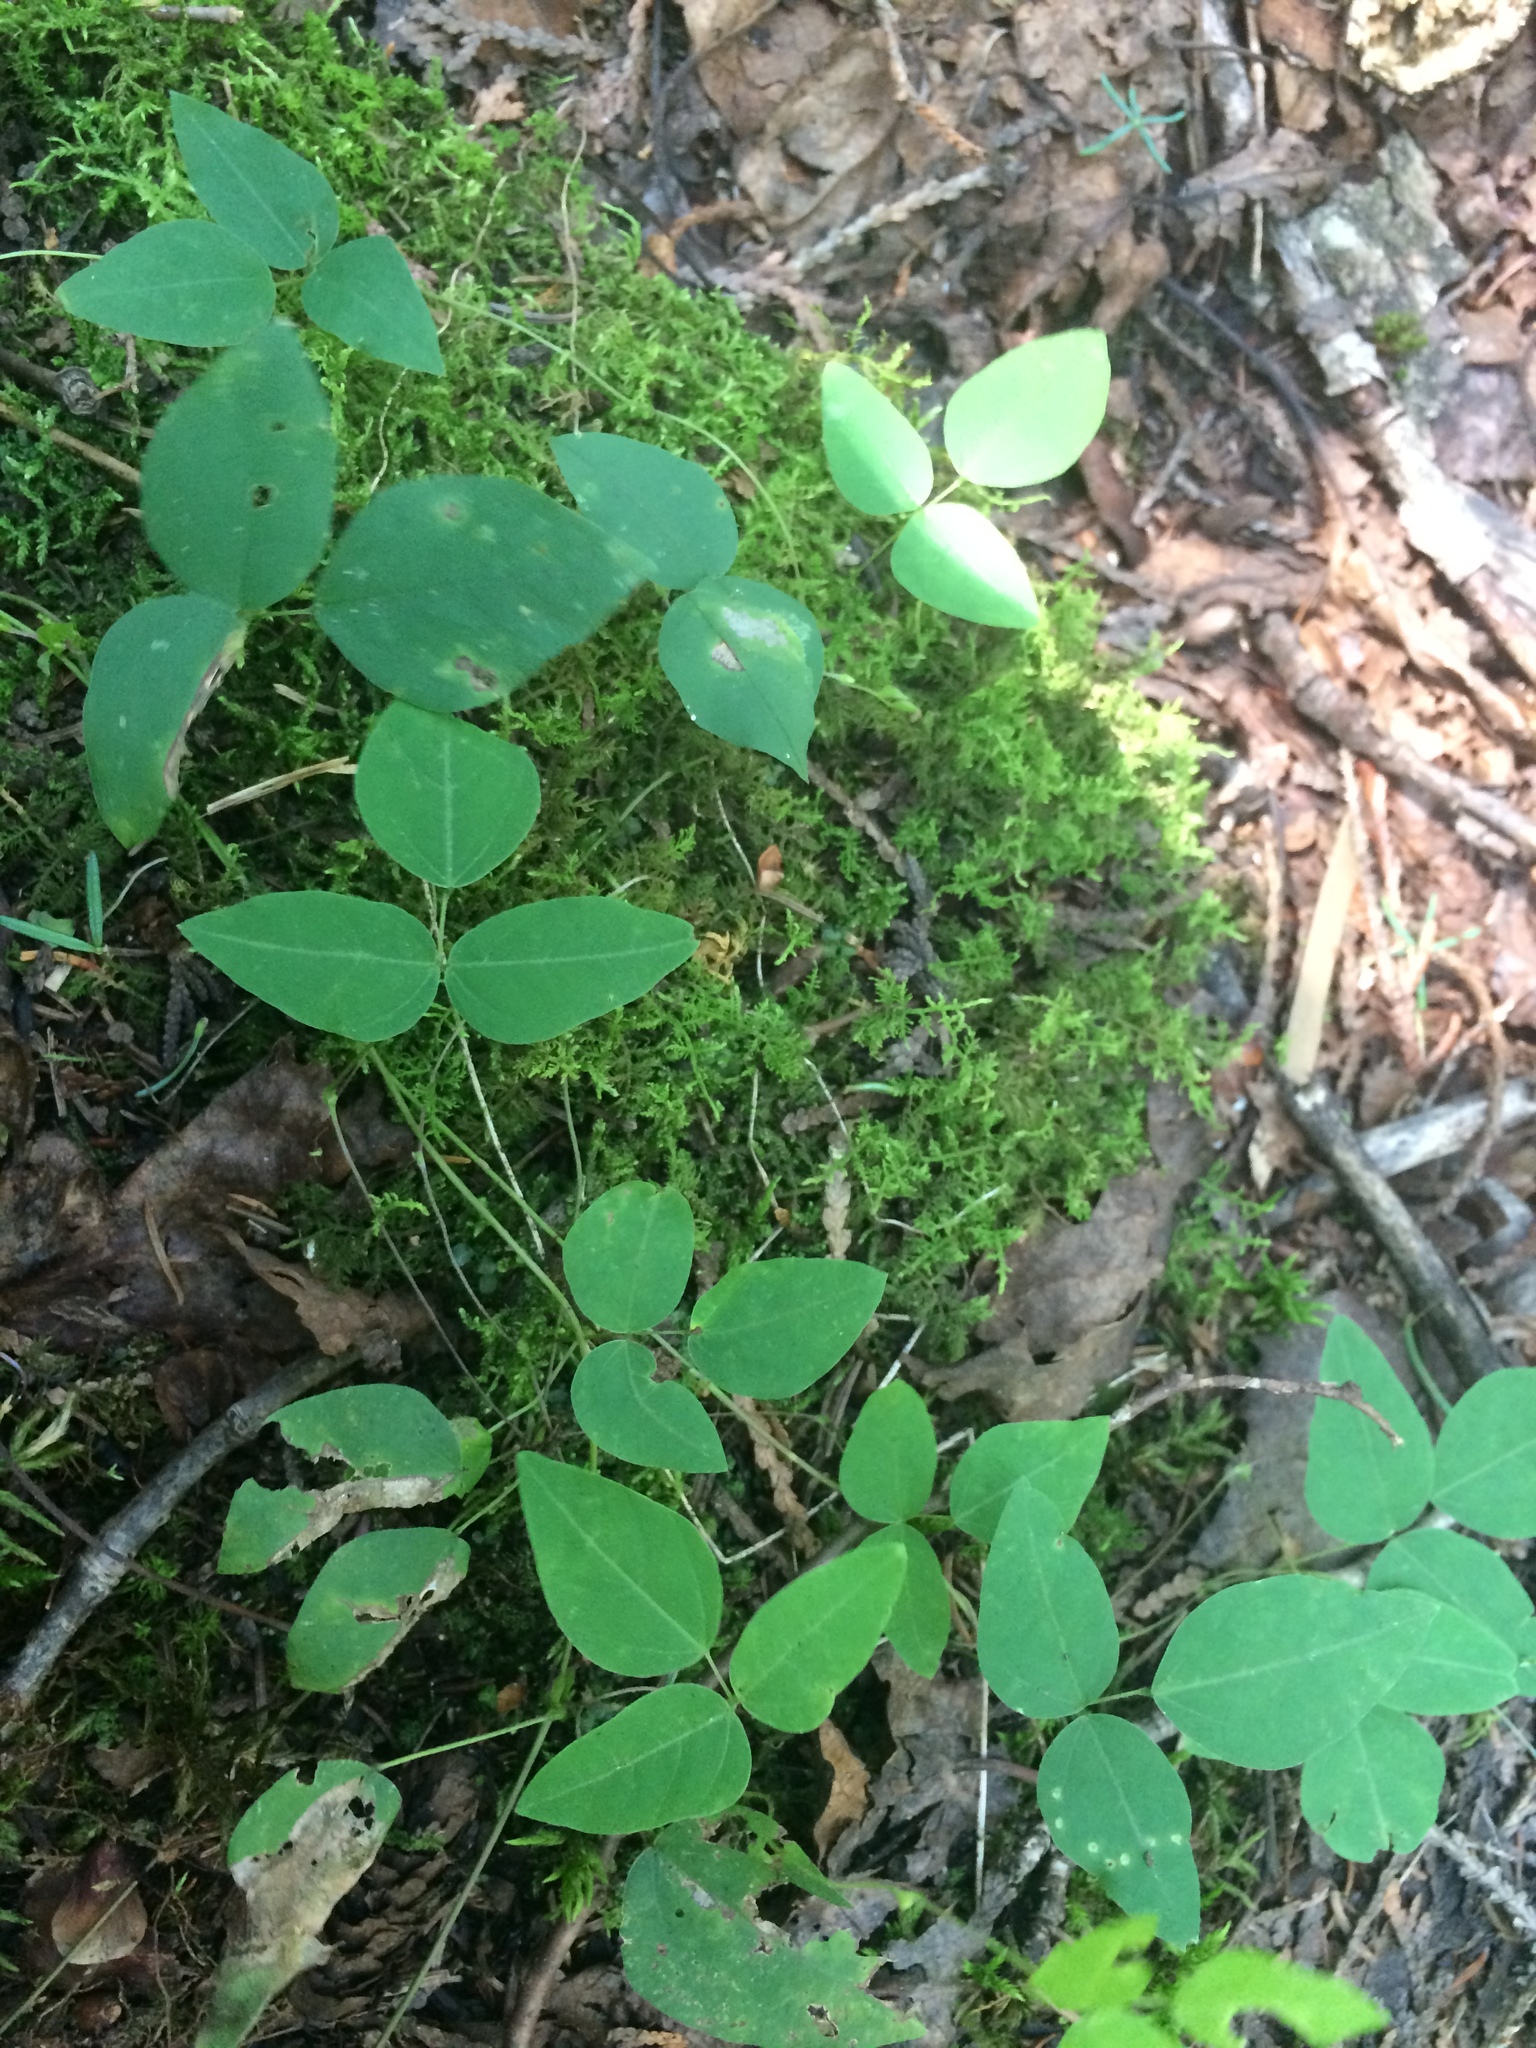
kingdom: Plantae
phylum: Tracheophyta
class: Magnoliopsida
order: Fabales
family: Fabaceae
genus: Amphicarpaea
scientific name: Amphicarpaea bracteata
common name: American hog peanut
